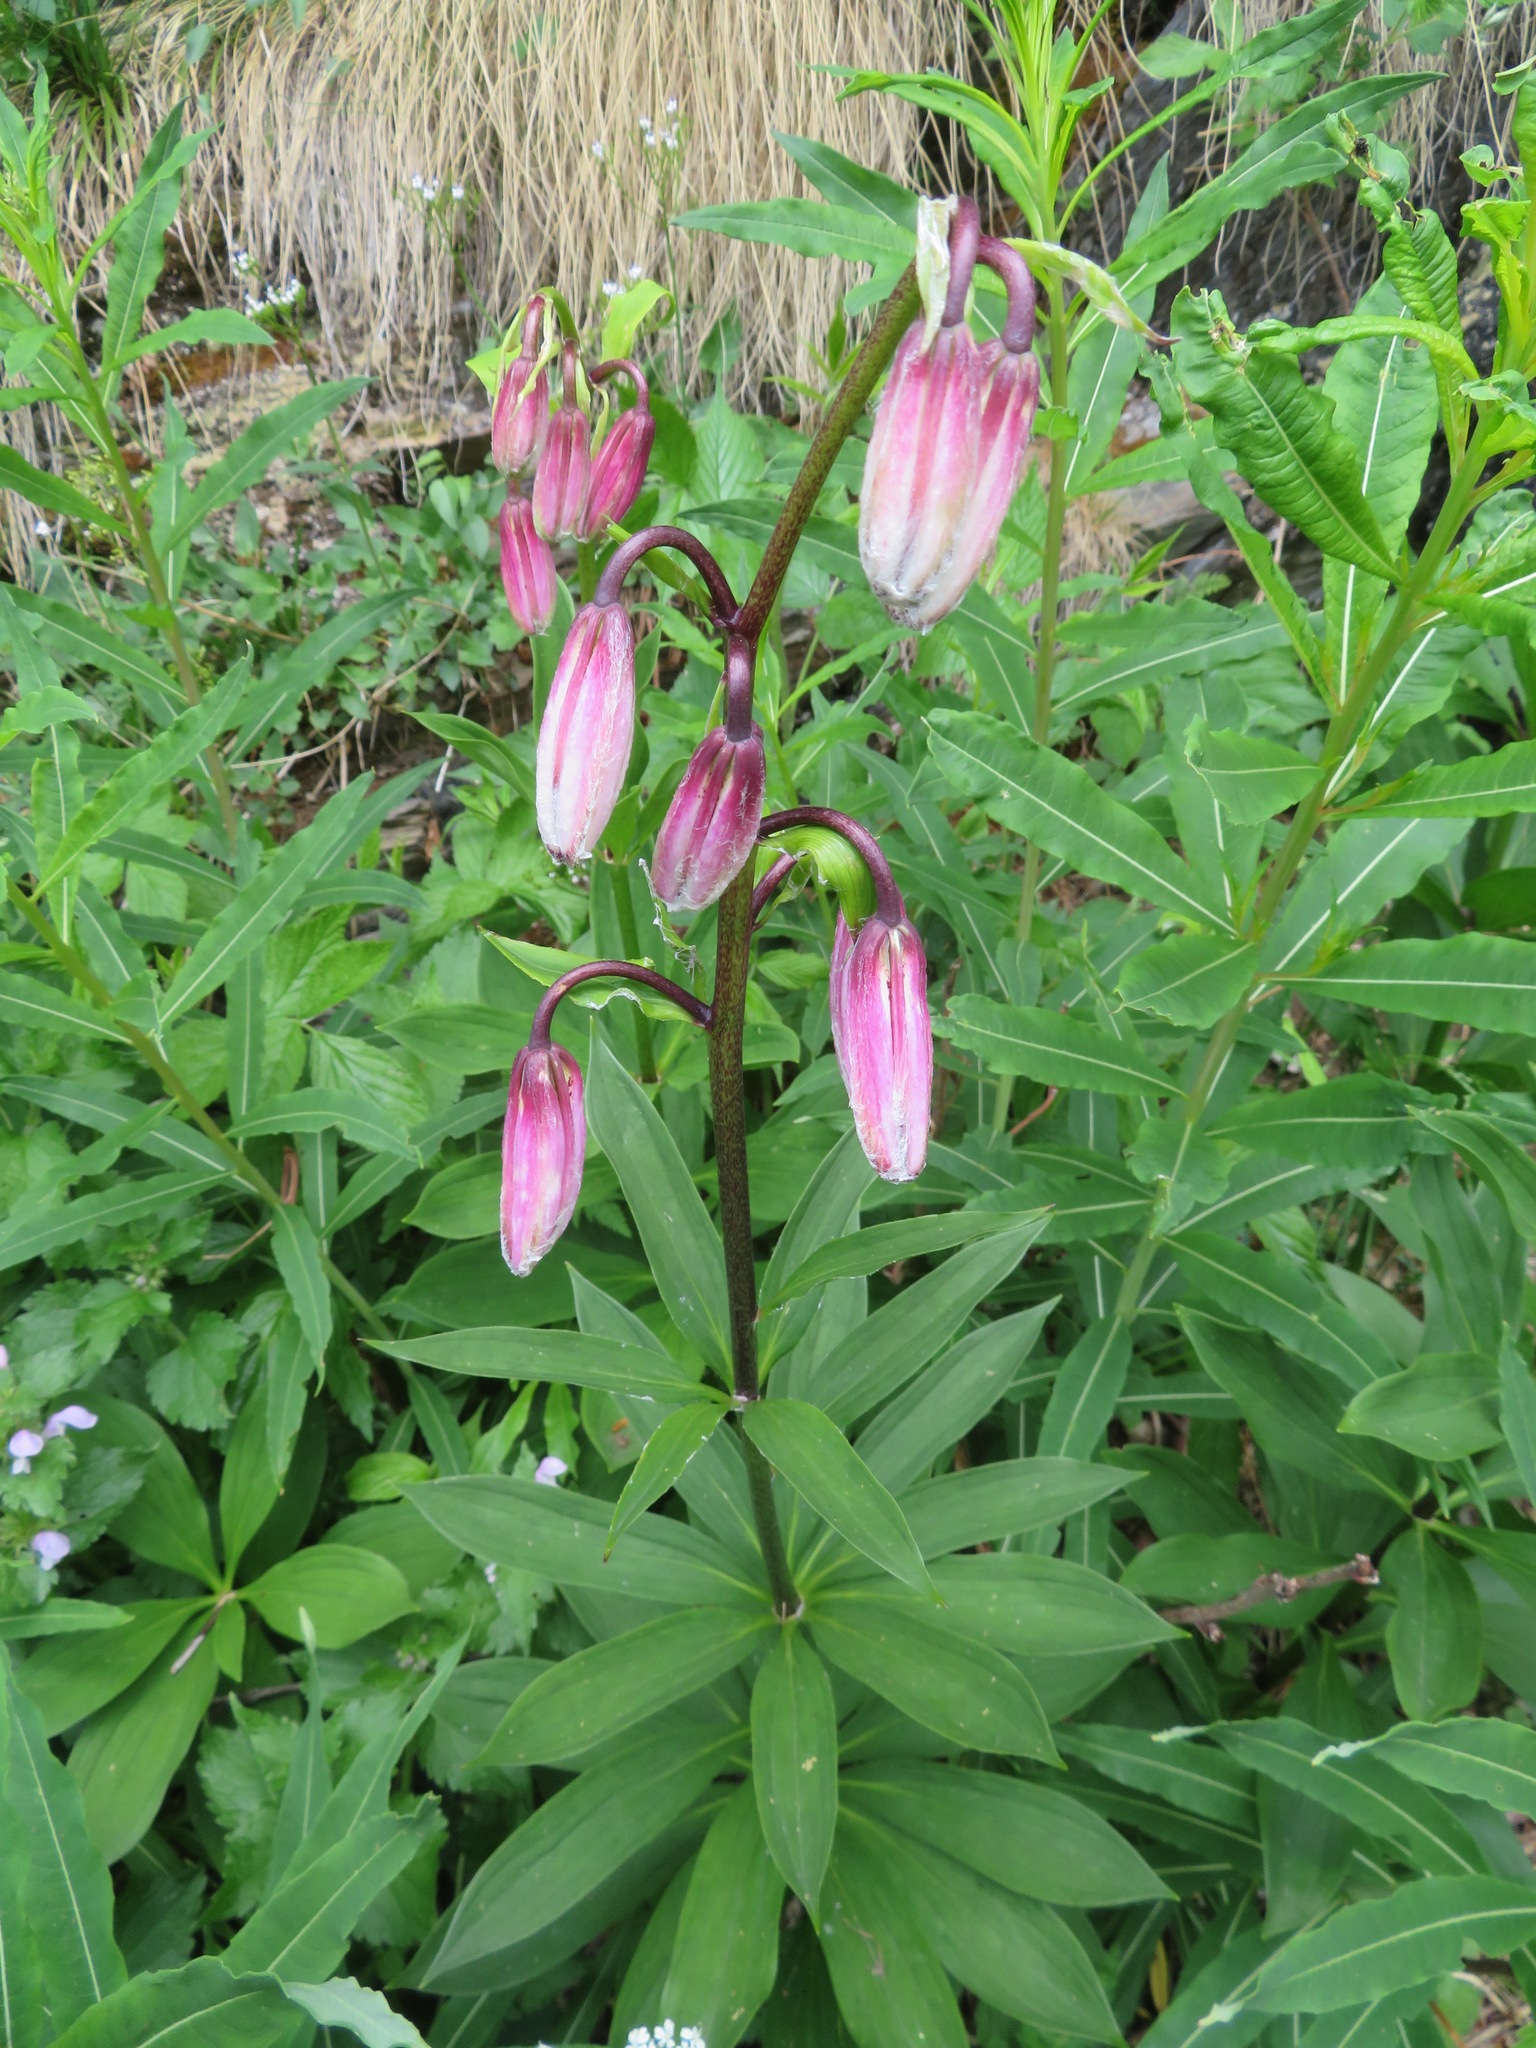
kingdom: Plantae
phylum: Tracheophyta
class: Liliopsida
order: Liliales
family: Liliaceae
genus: Lilium
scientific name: Lilium martagon
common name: Martagon lily
